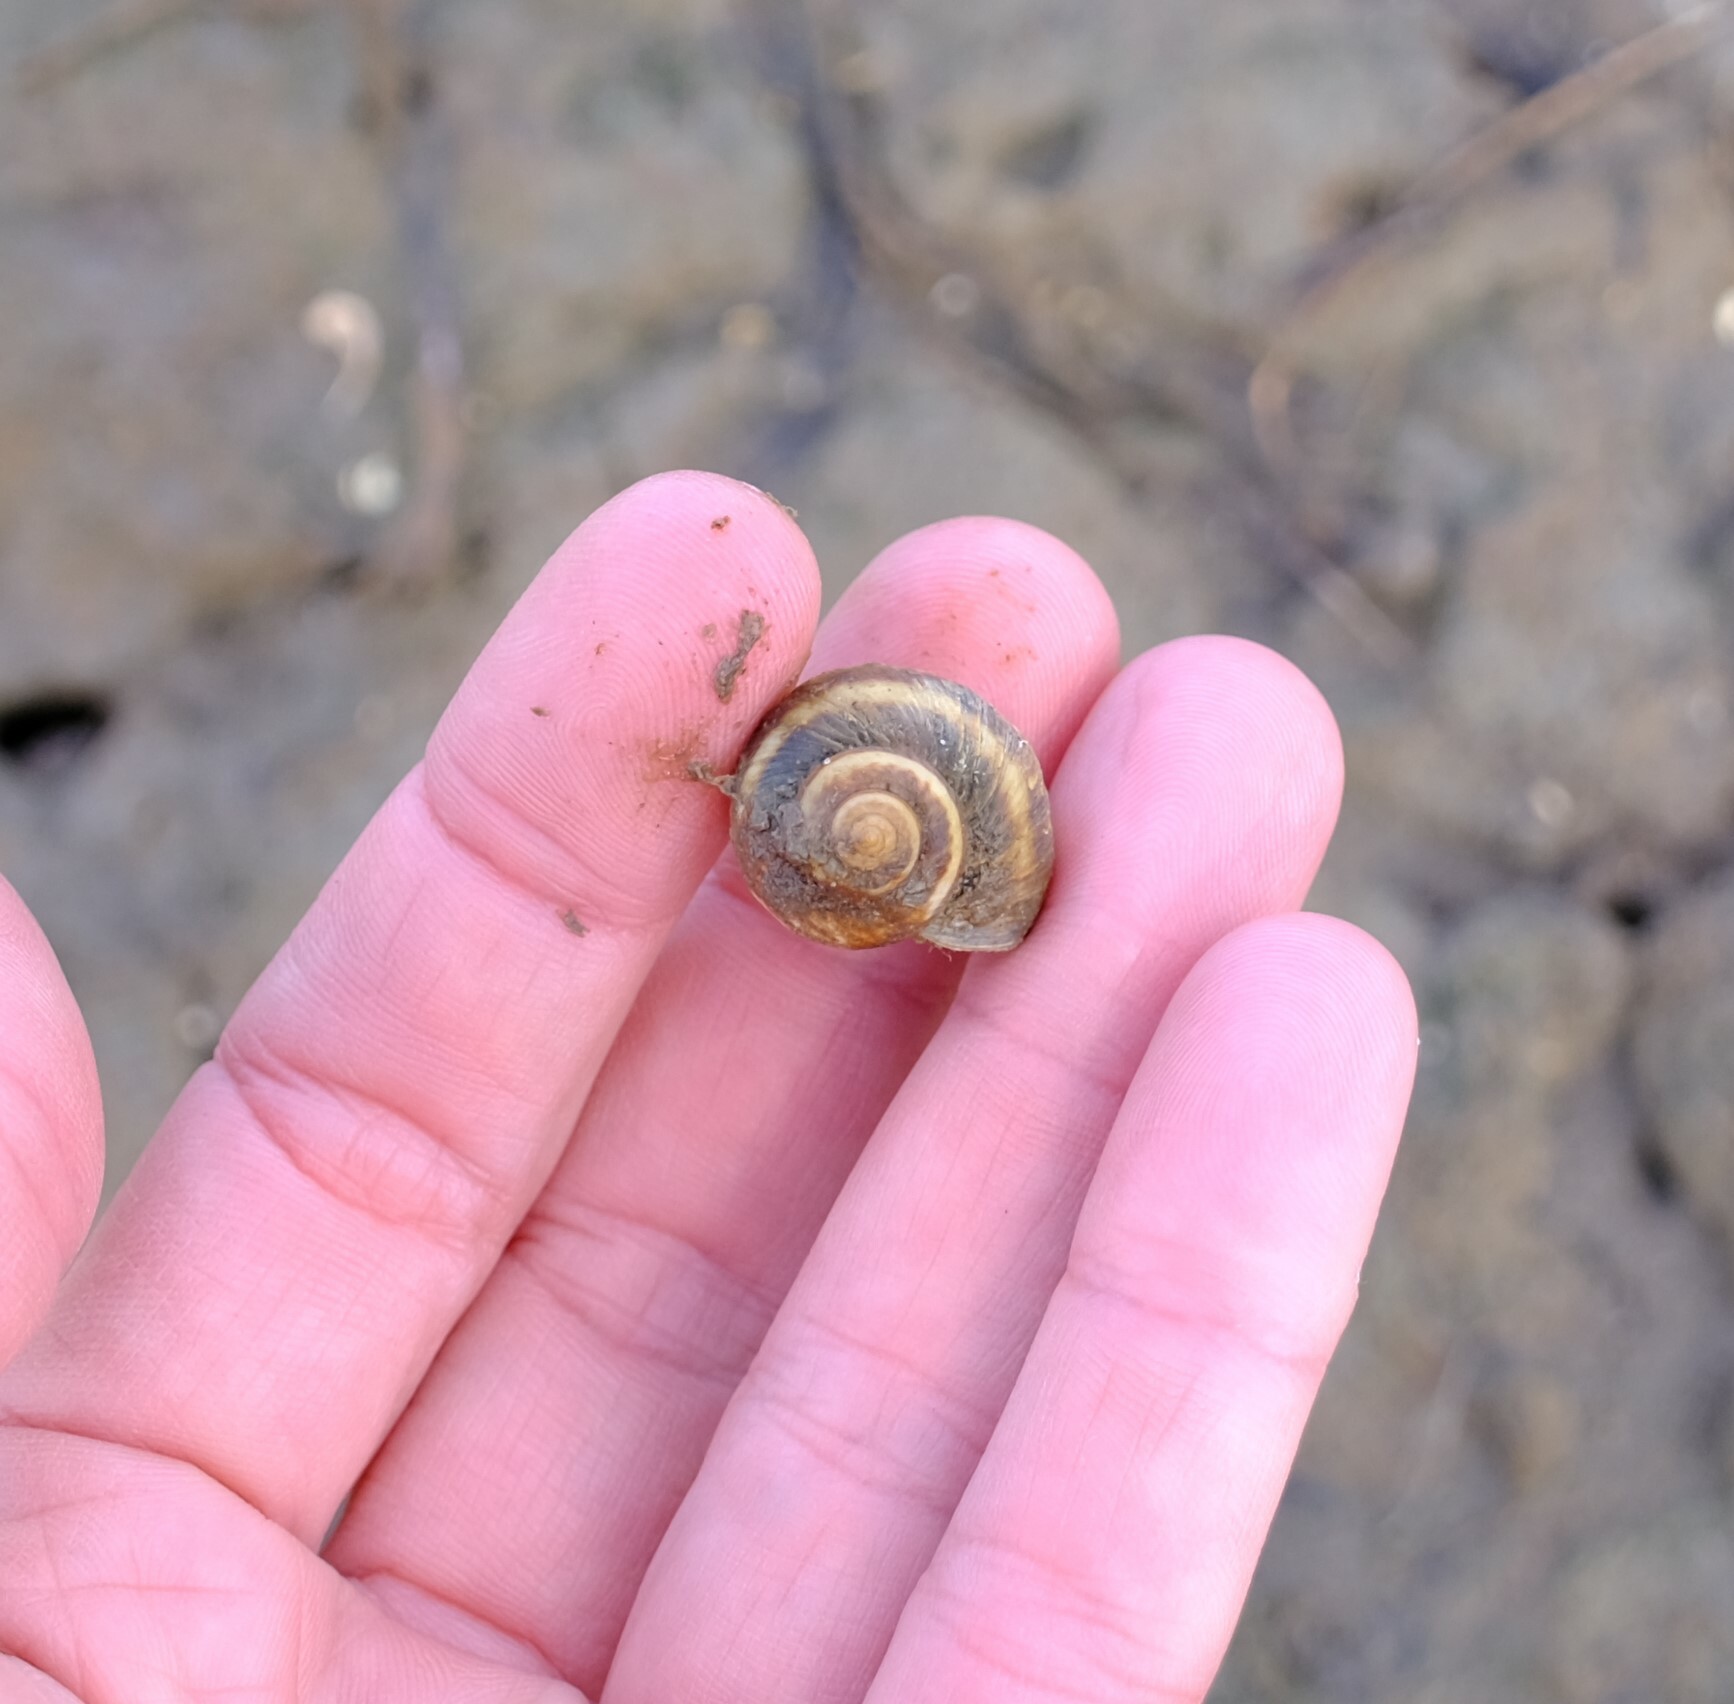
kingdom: Animalia
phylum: Mollusca
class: Gastropoda
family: Amphibolidae
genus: Phallomedusa
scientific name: Phallomedusa solida
